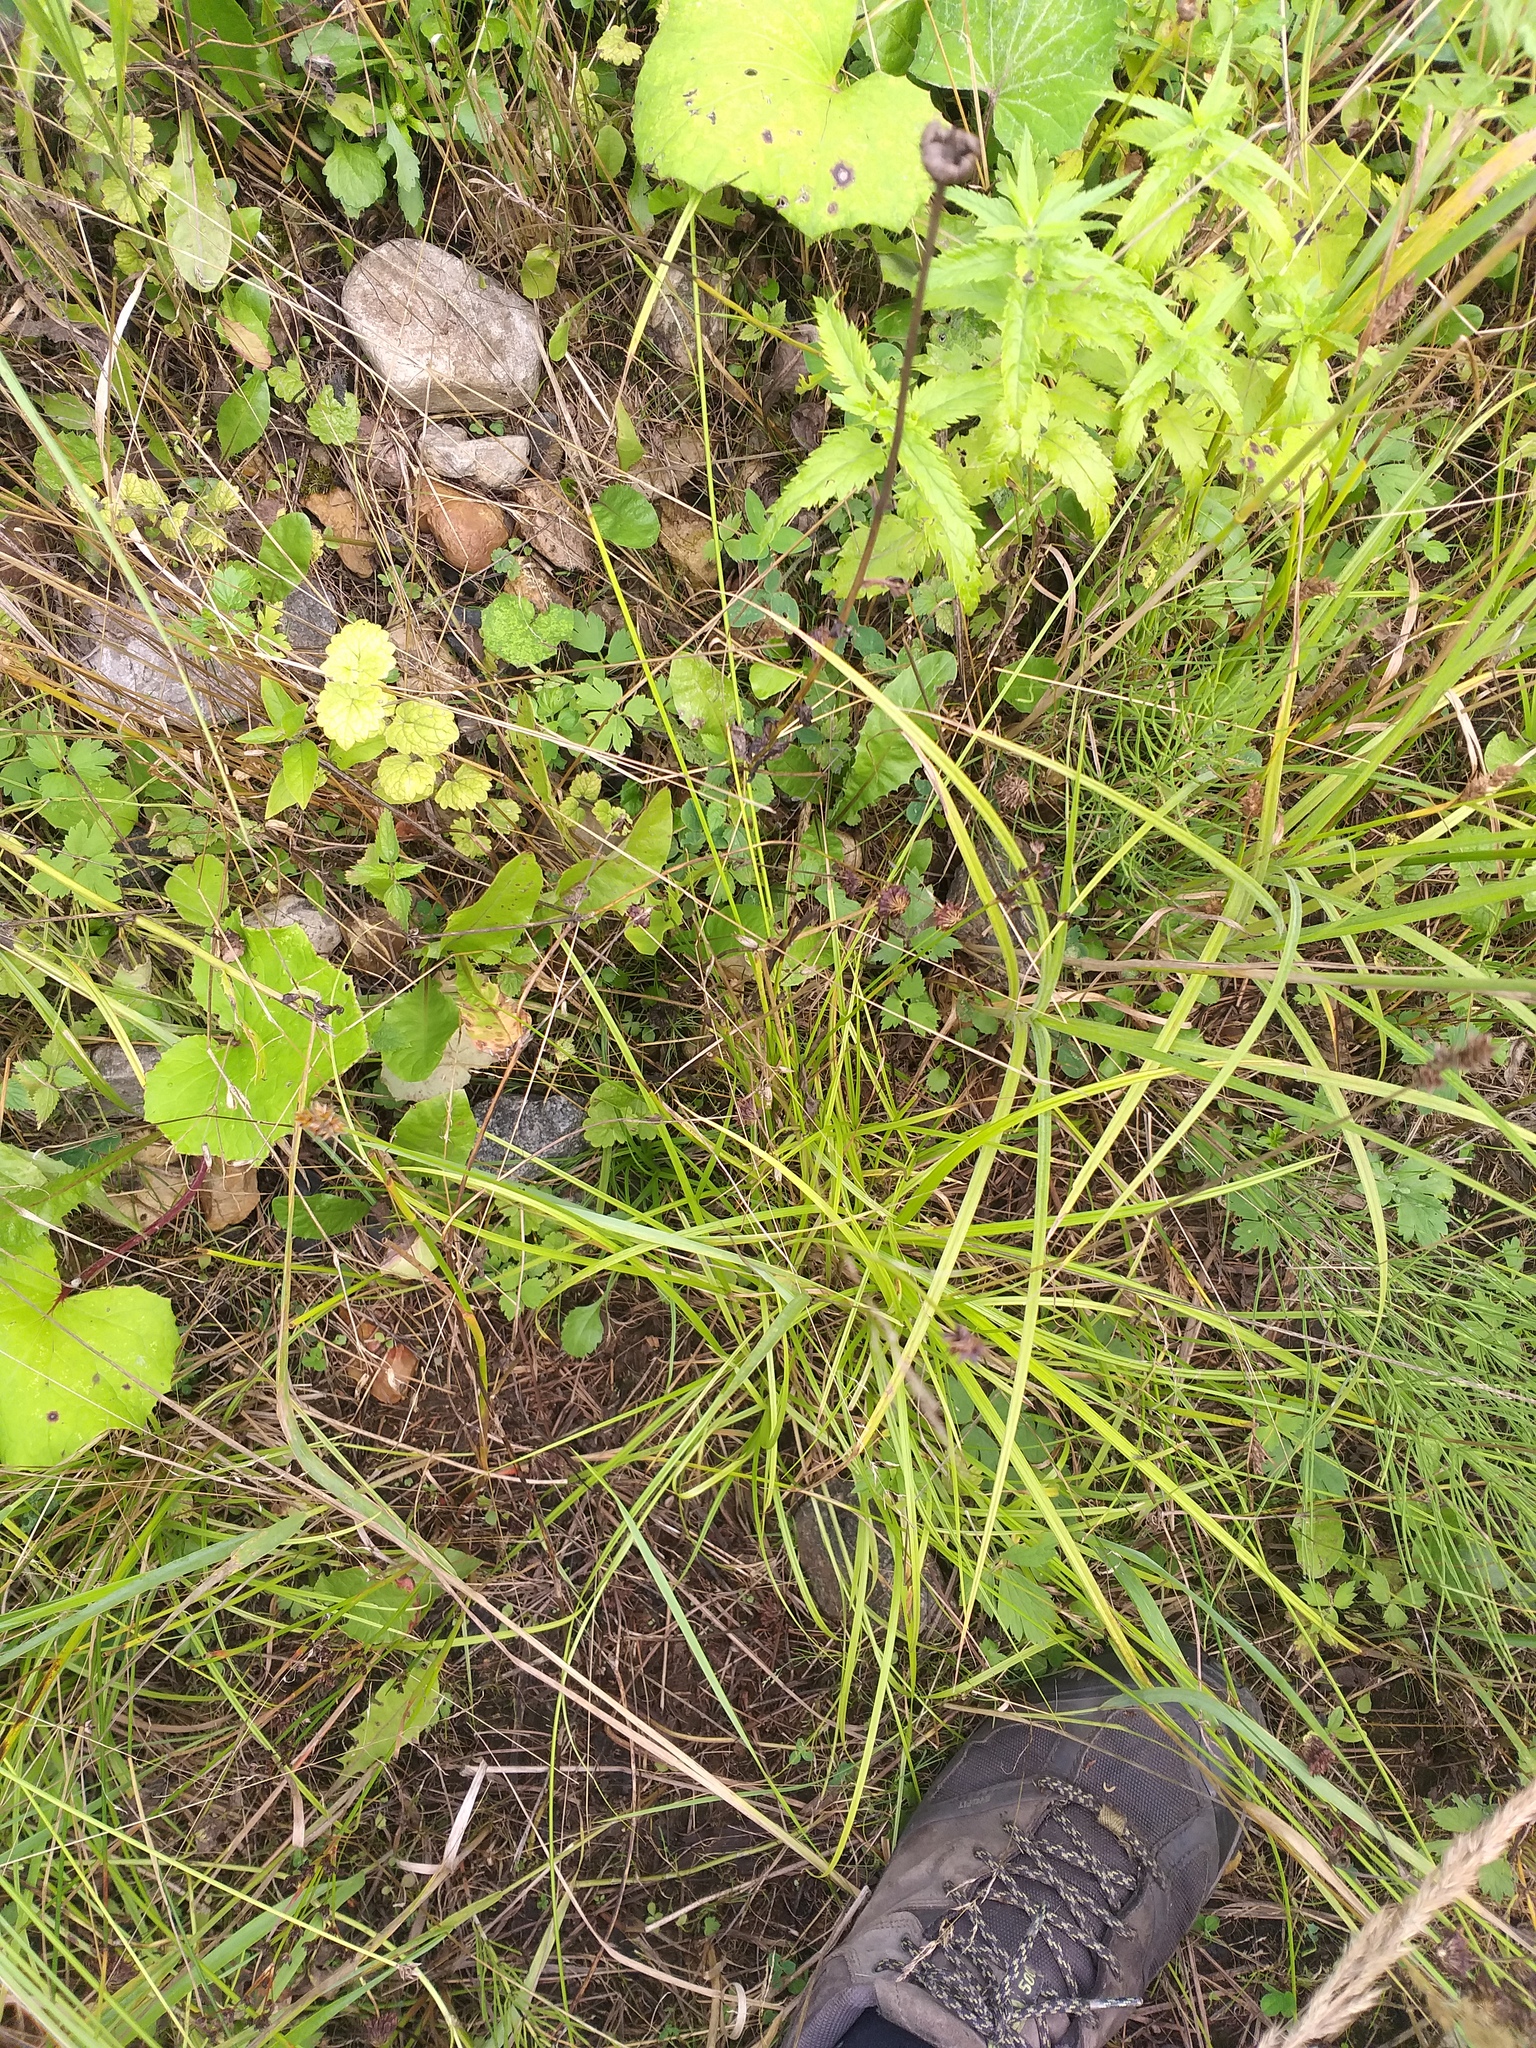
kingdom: Plantae
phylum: Tracheophyta
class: Liliopsida
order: Poales
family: Cyperaceae
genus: Carex
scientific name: Carex spicata
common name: Spiked sedge
